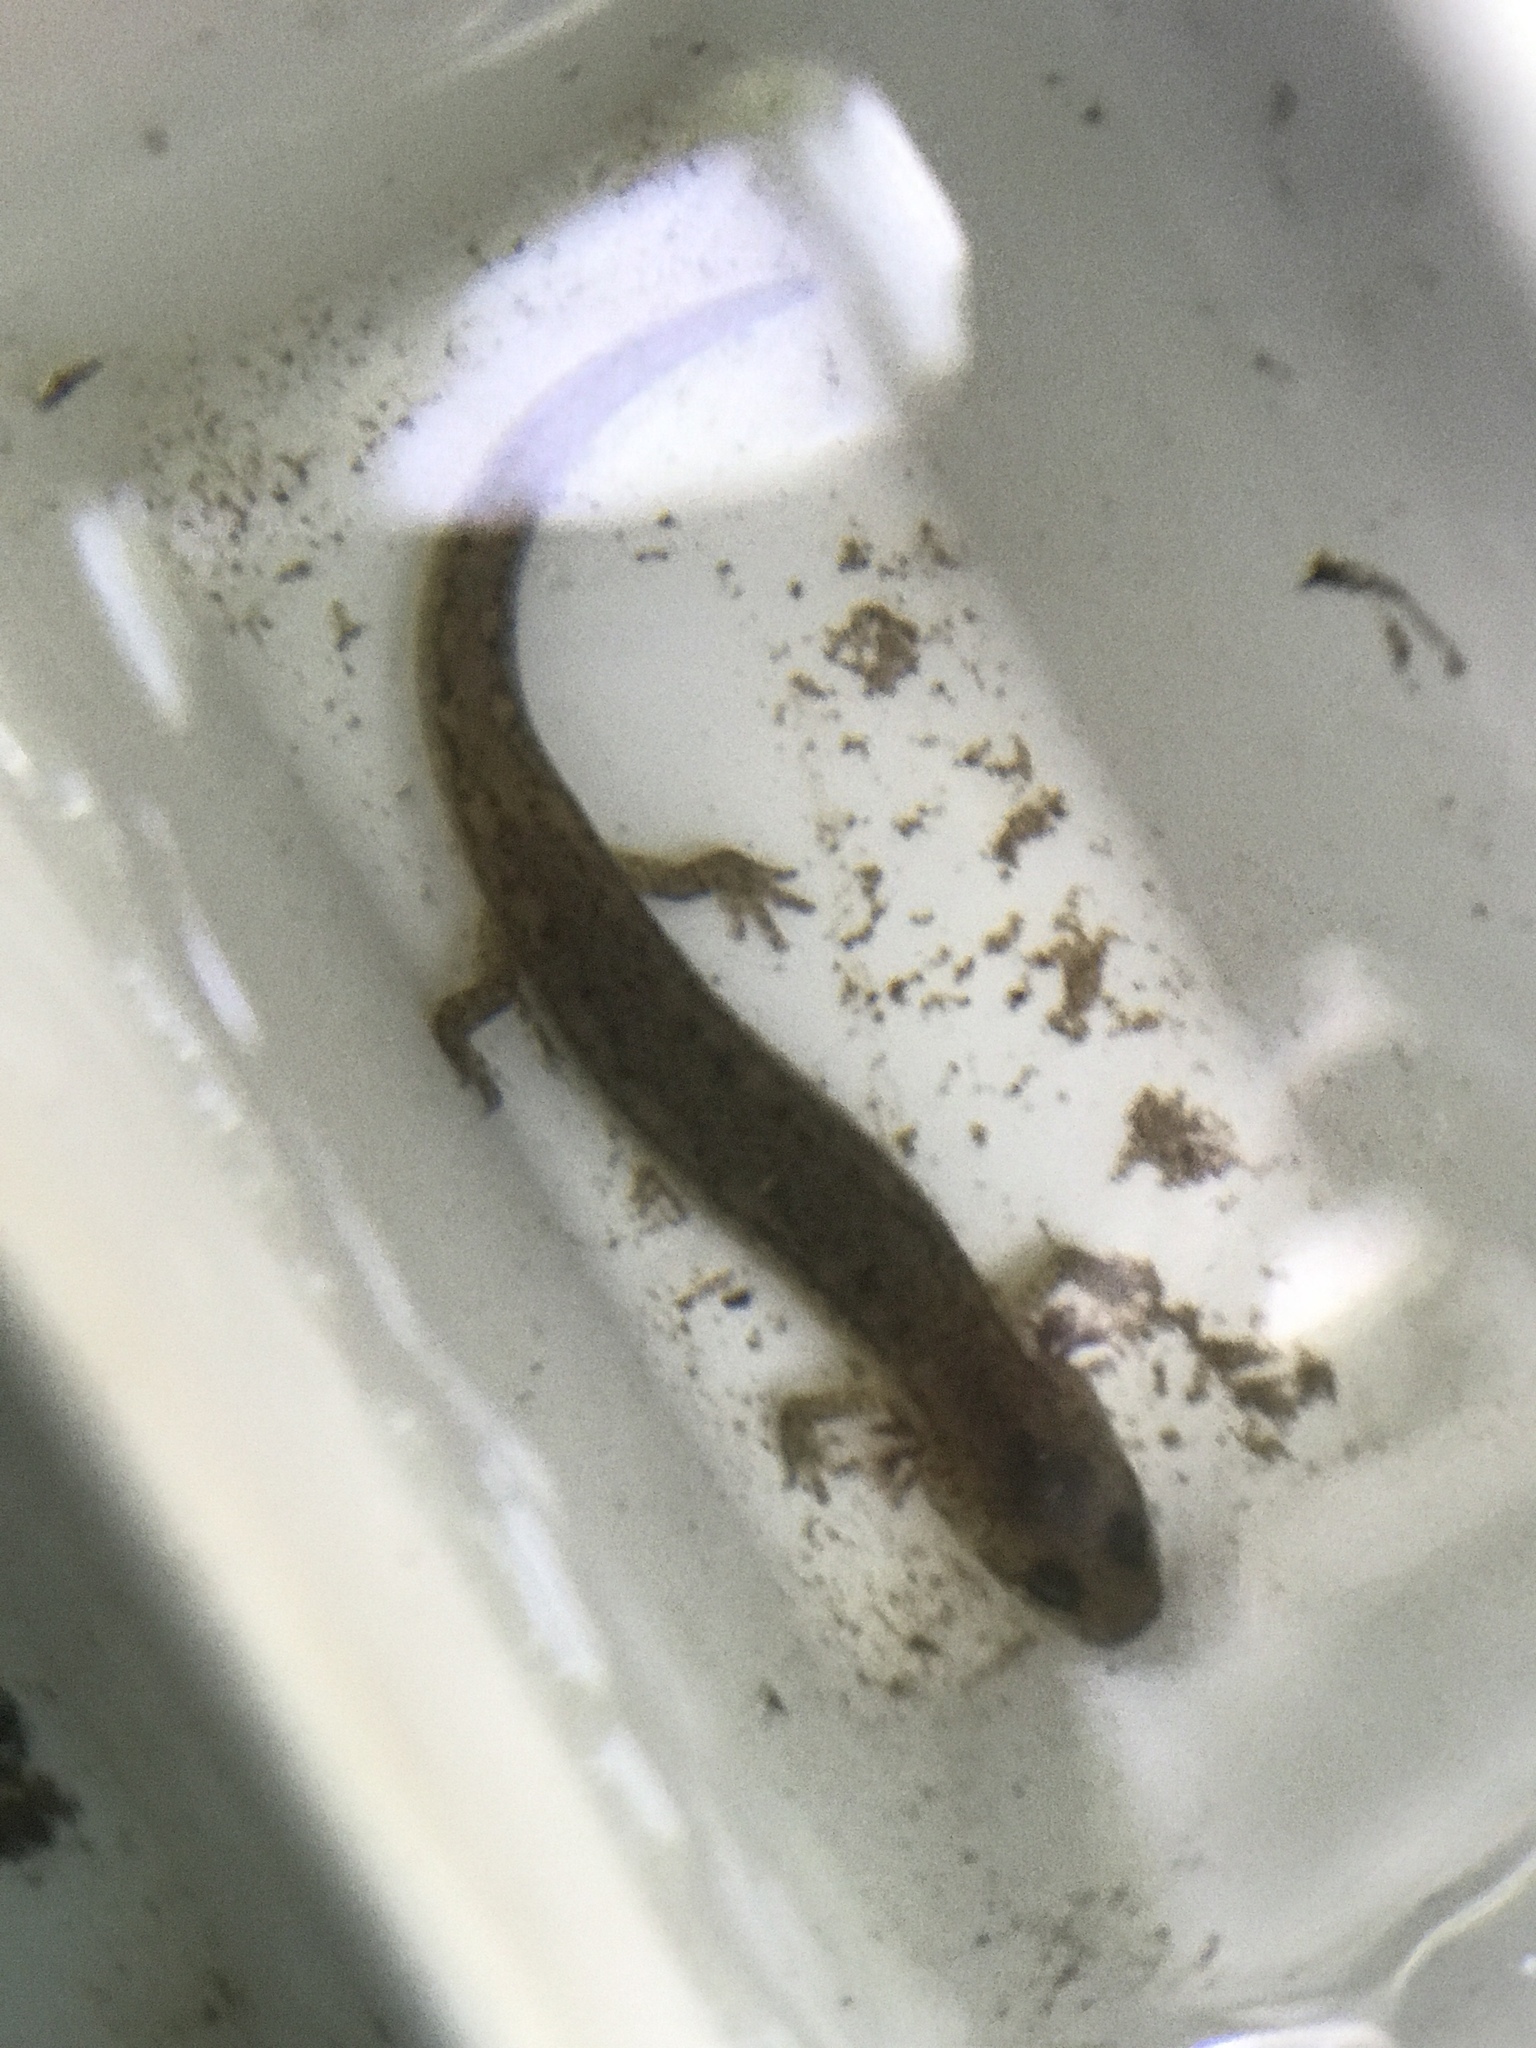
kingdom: Animalia
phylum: Chordata
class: Amphibia
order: Caudata
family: Plethodontidae
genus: Pseudotriton
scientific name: Pseudotriton ruber
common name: Red salamander
